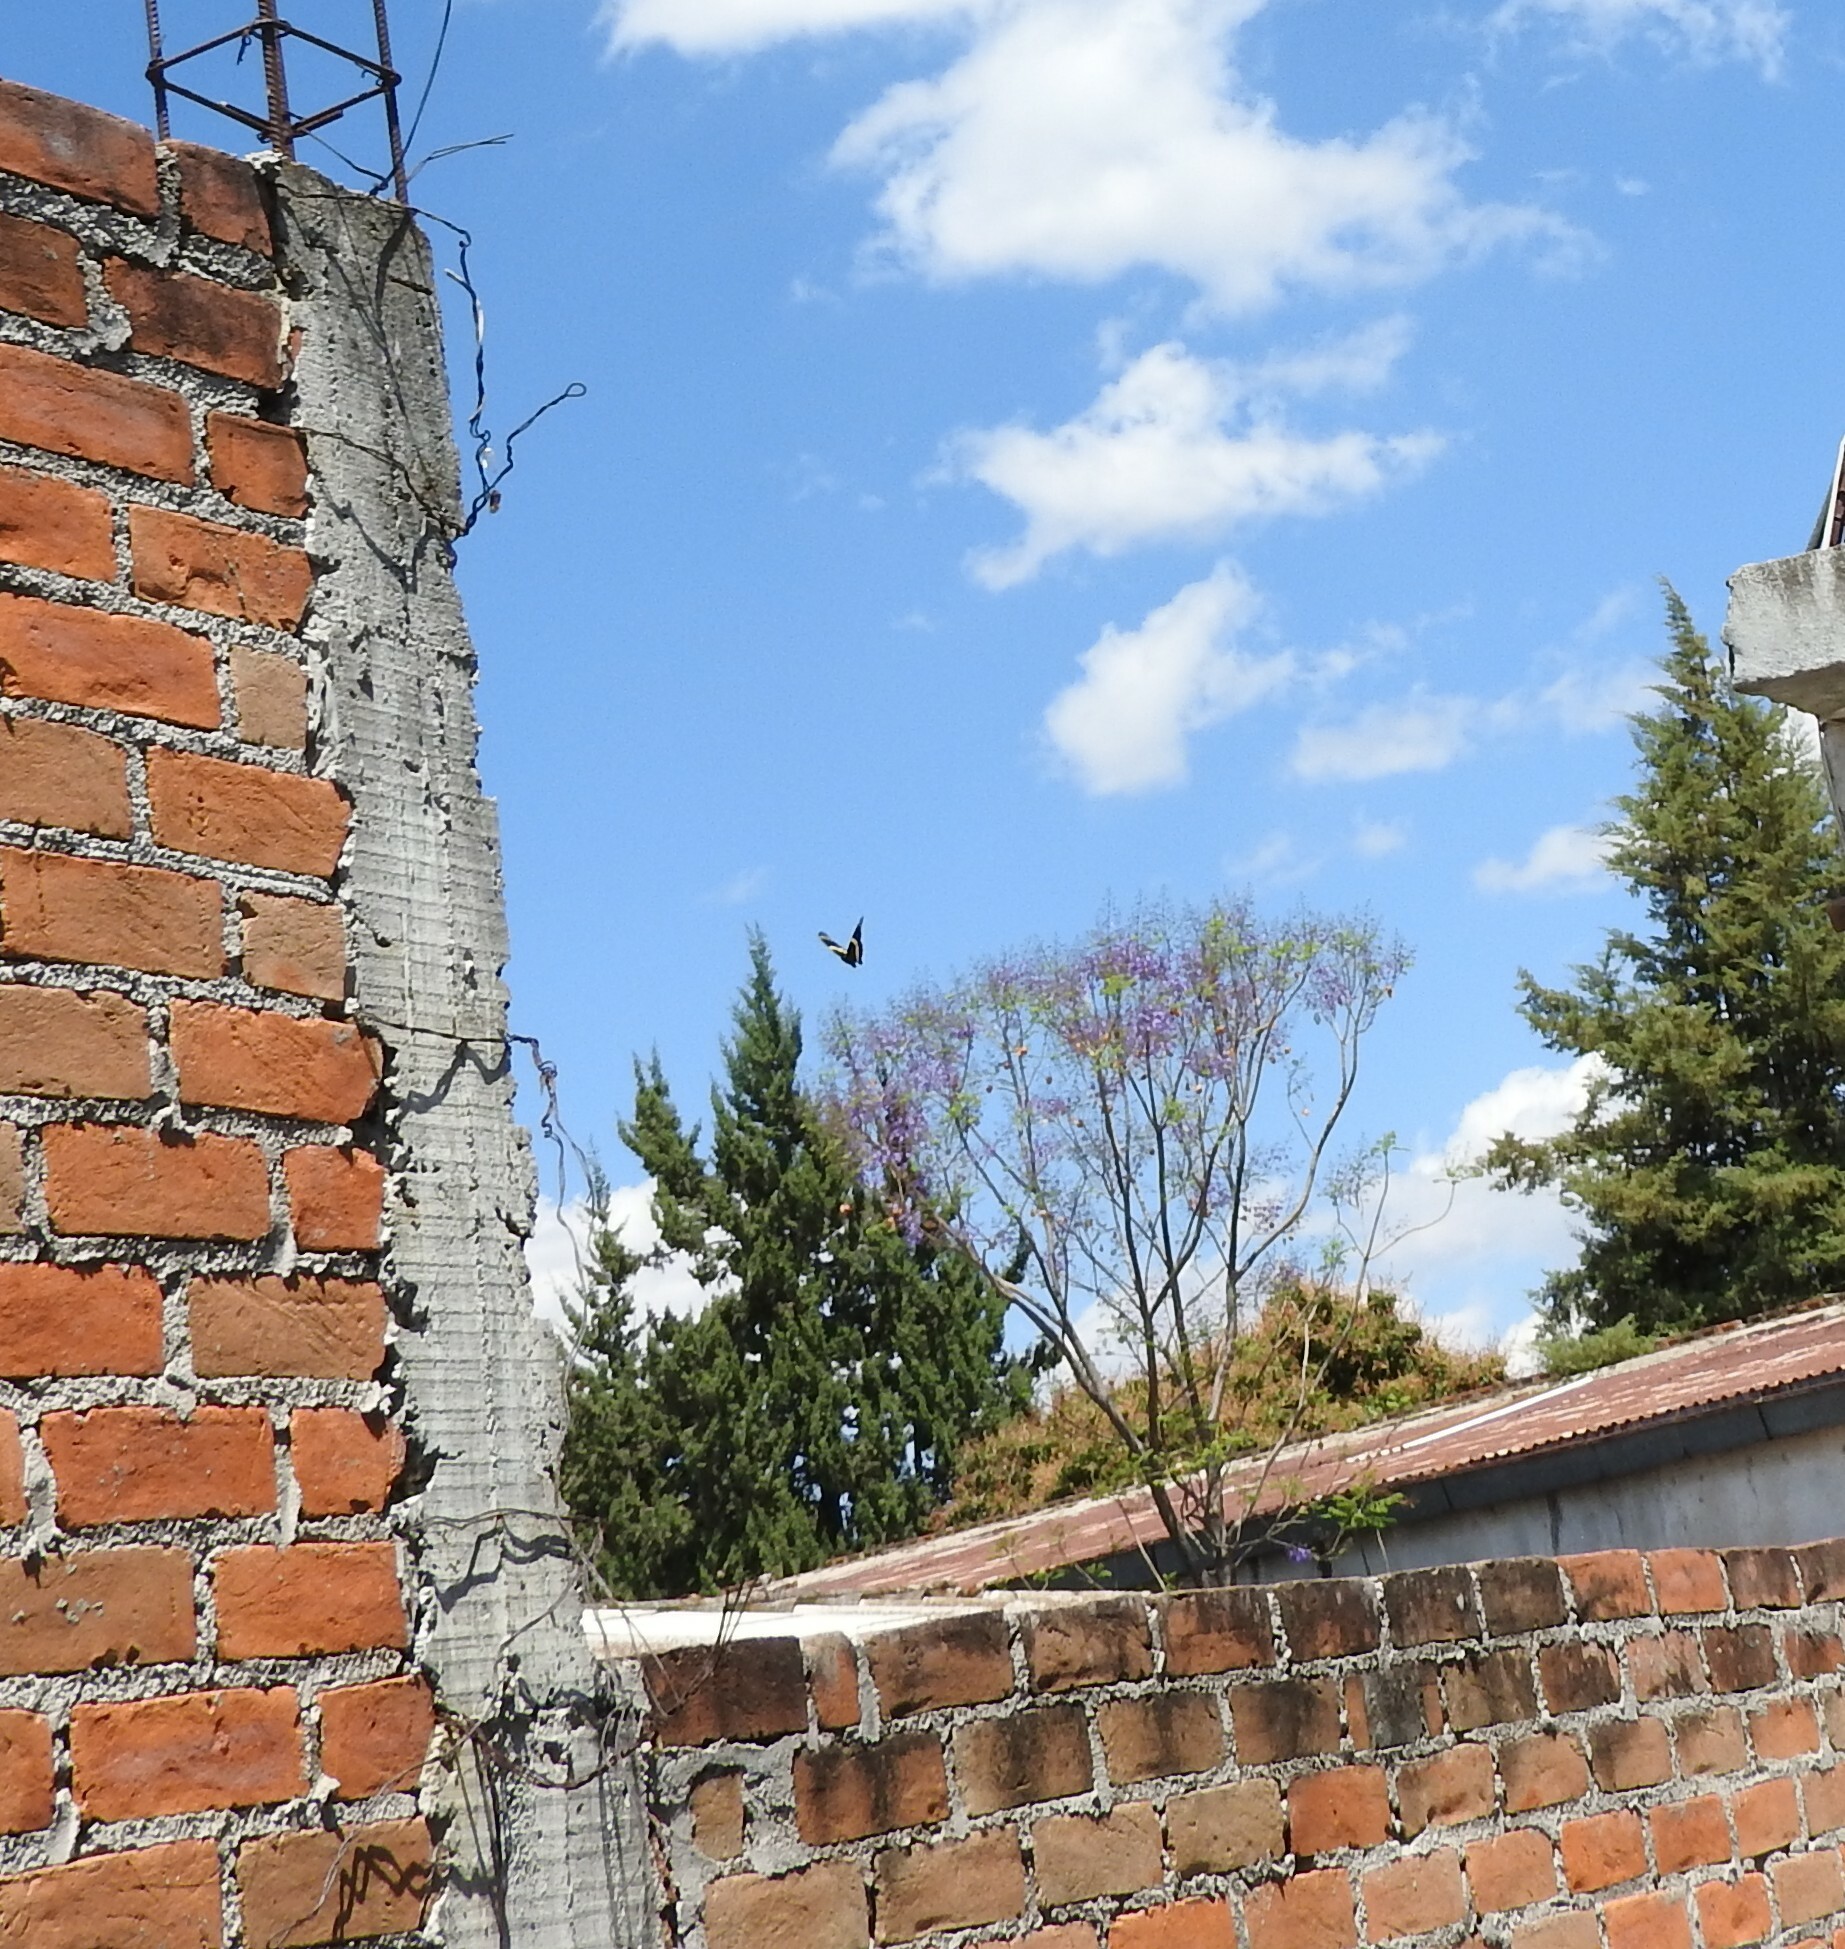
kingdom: Animalia
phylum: Arthropoda
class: Insecta
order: Lepidoptera
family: Papilionidae
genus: Papilio
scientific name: Papilio garamas
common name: Magnificent swallowtail
